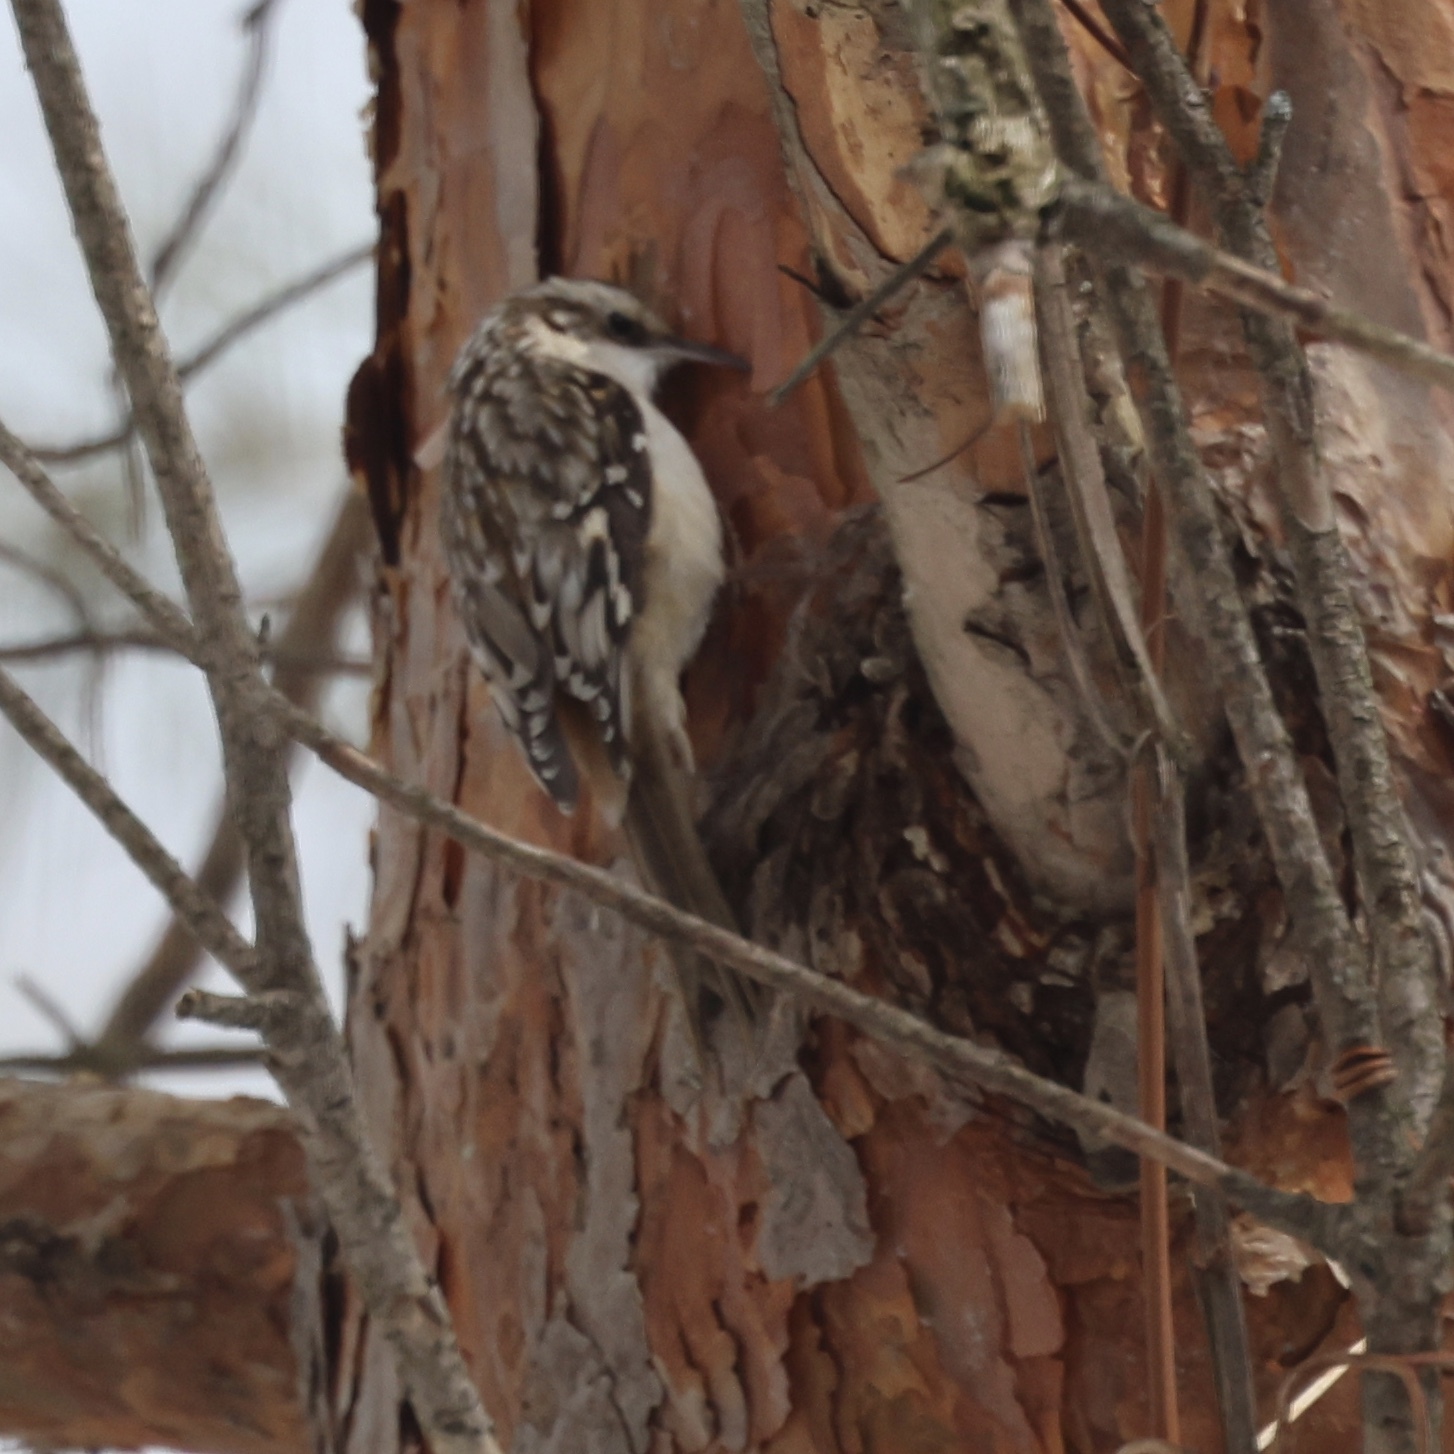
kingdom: Animalia
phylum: Chordata
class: Aves
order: Passeriformes
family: Certhiidae
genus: Certhia
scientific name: Certhia americana
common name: Brown creeper
